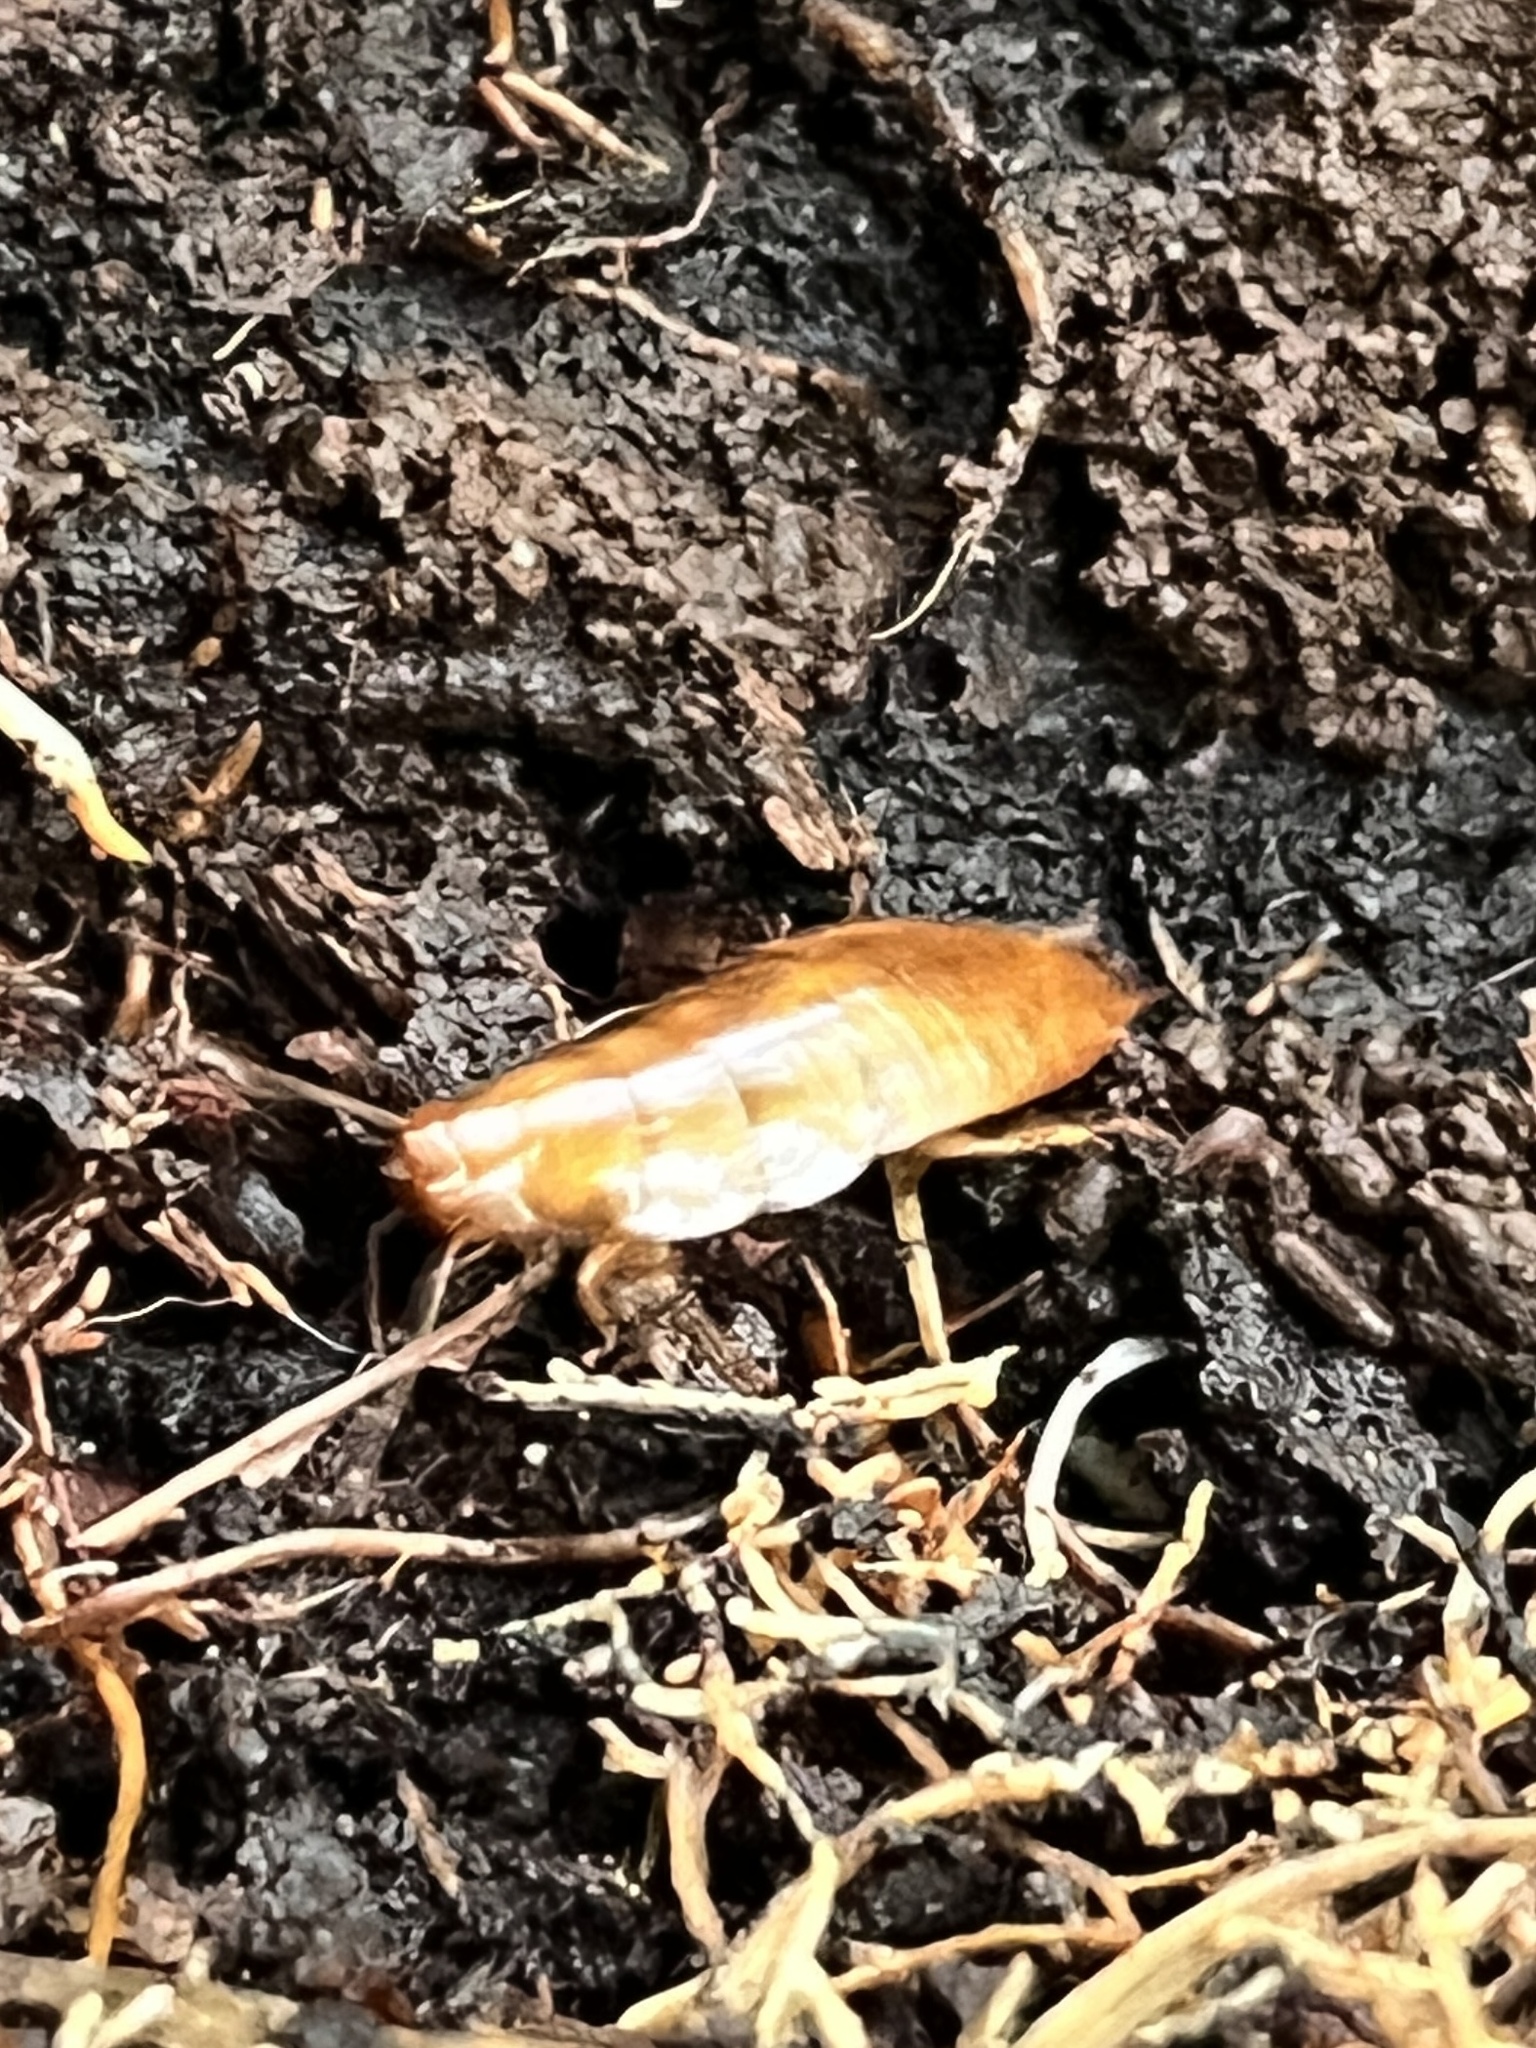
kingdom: Animalia
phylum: Arthropoda
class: Insecta
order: Blattodea
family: Cryptocercidae
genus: Cryptocercus
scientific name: Cryptocercus wrighti
